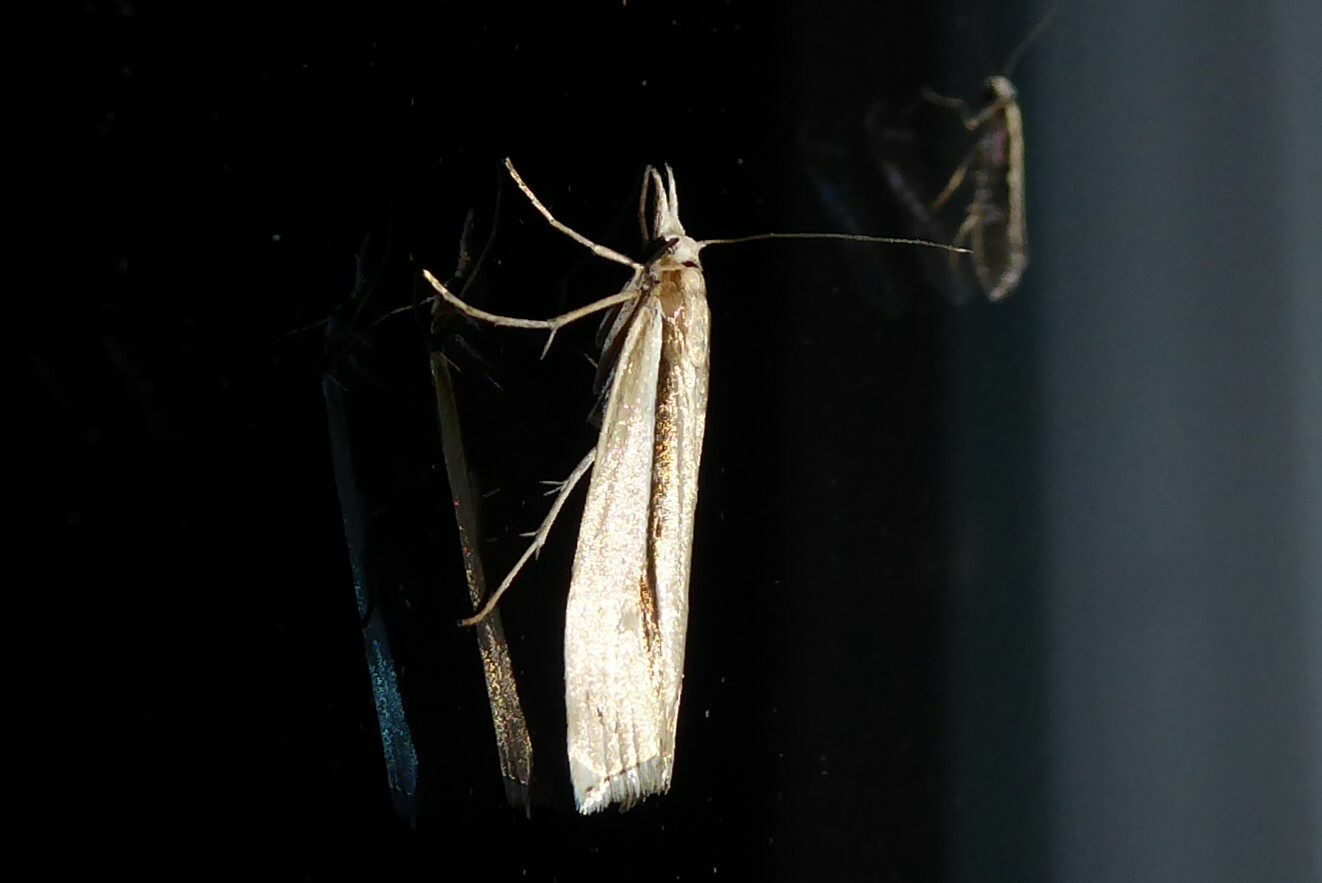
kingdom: Animalia
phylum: Arthropoda
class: Insecta
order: Lepidoptera
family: Crambidae
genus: Orocrambus
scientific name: Orocrambus ramosellus
